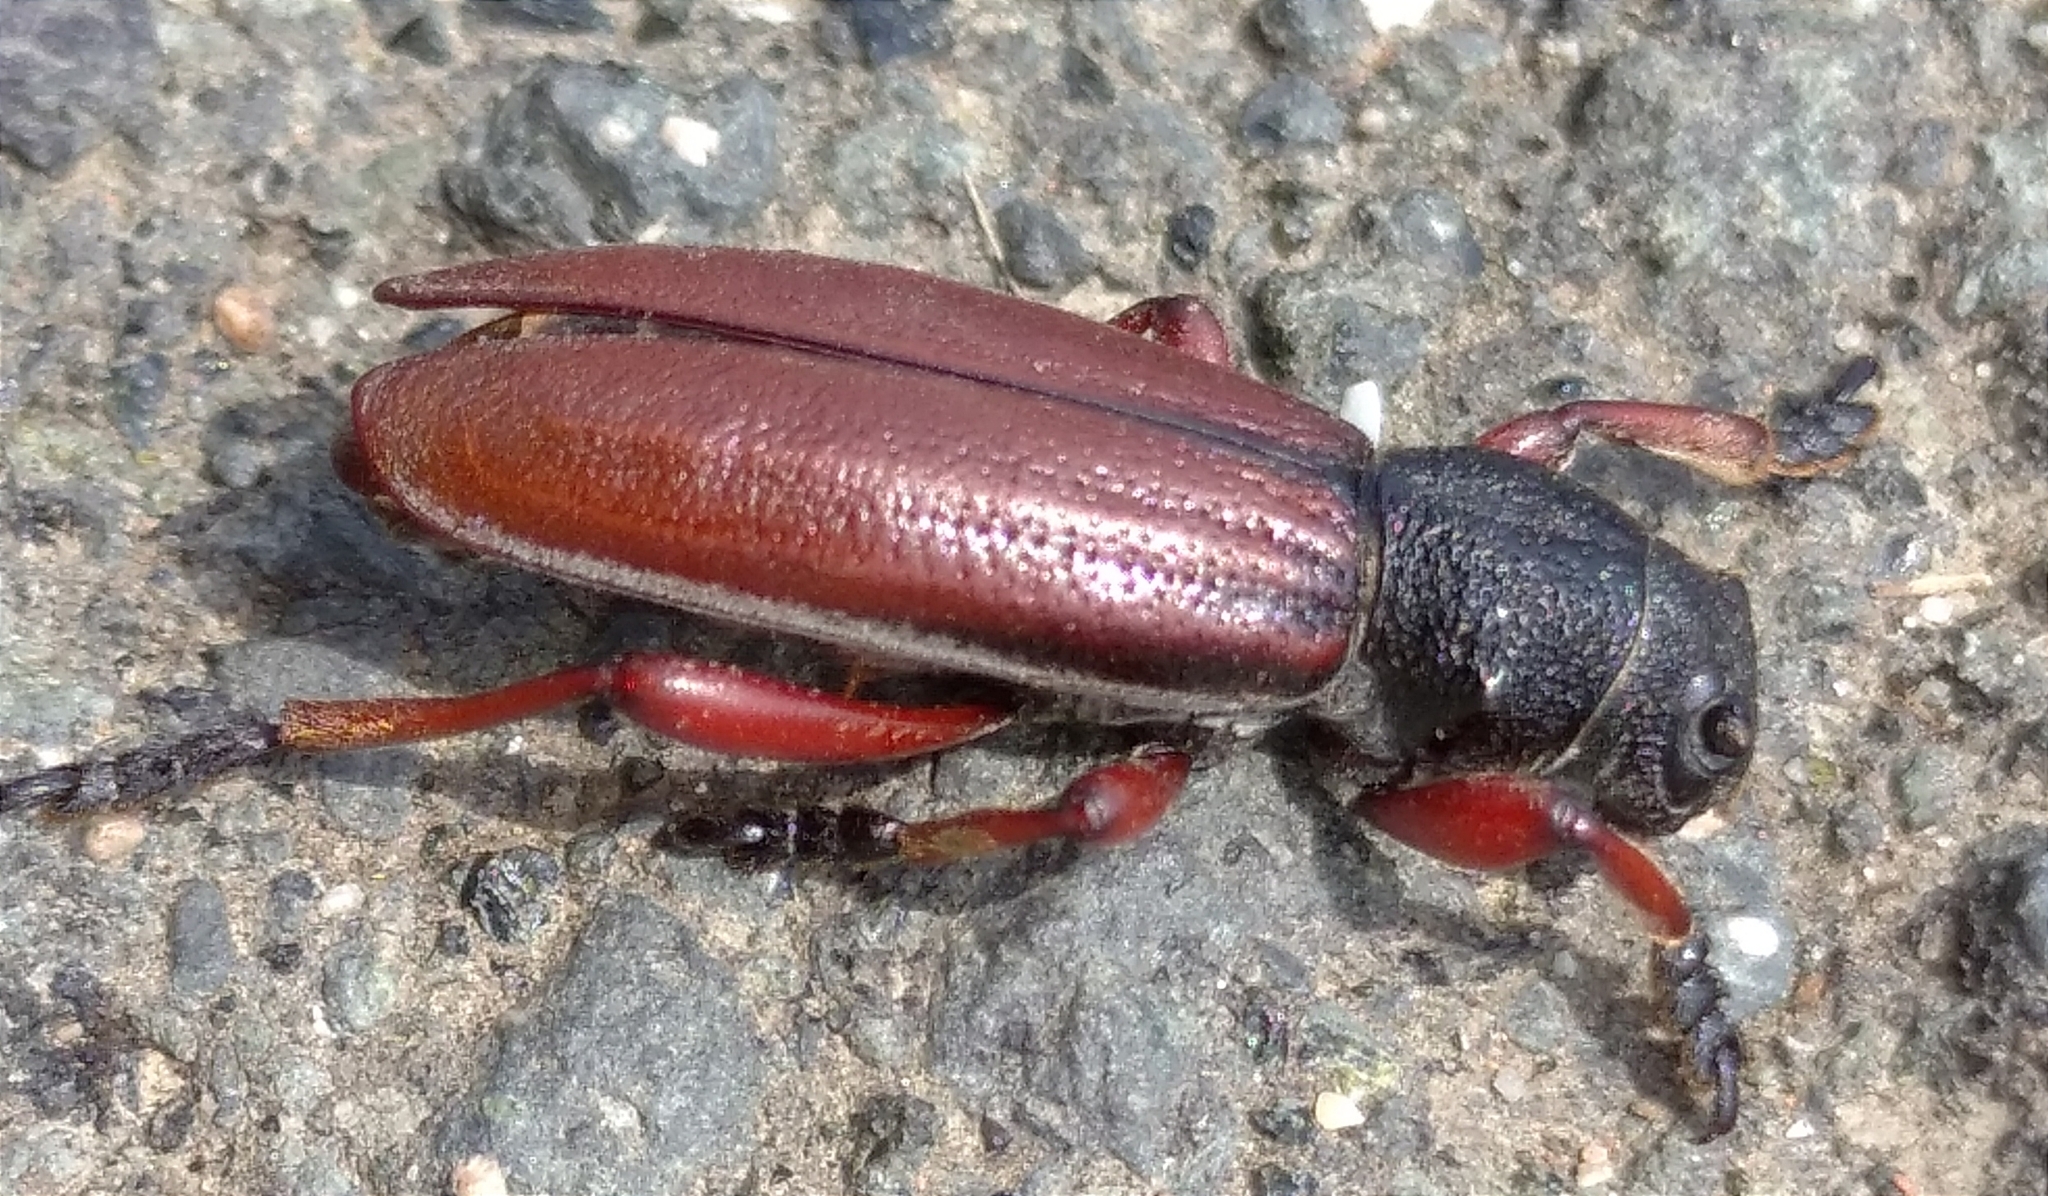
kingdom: Animalia
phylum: Arthropoda
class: Insecta
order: Coleoptera
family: Cerambycidae
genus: Dorcadion
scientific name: Dorcadion fulvum
